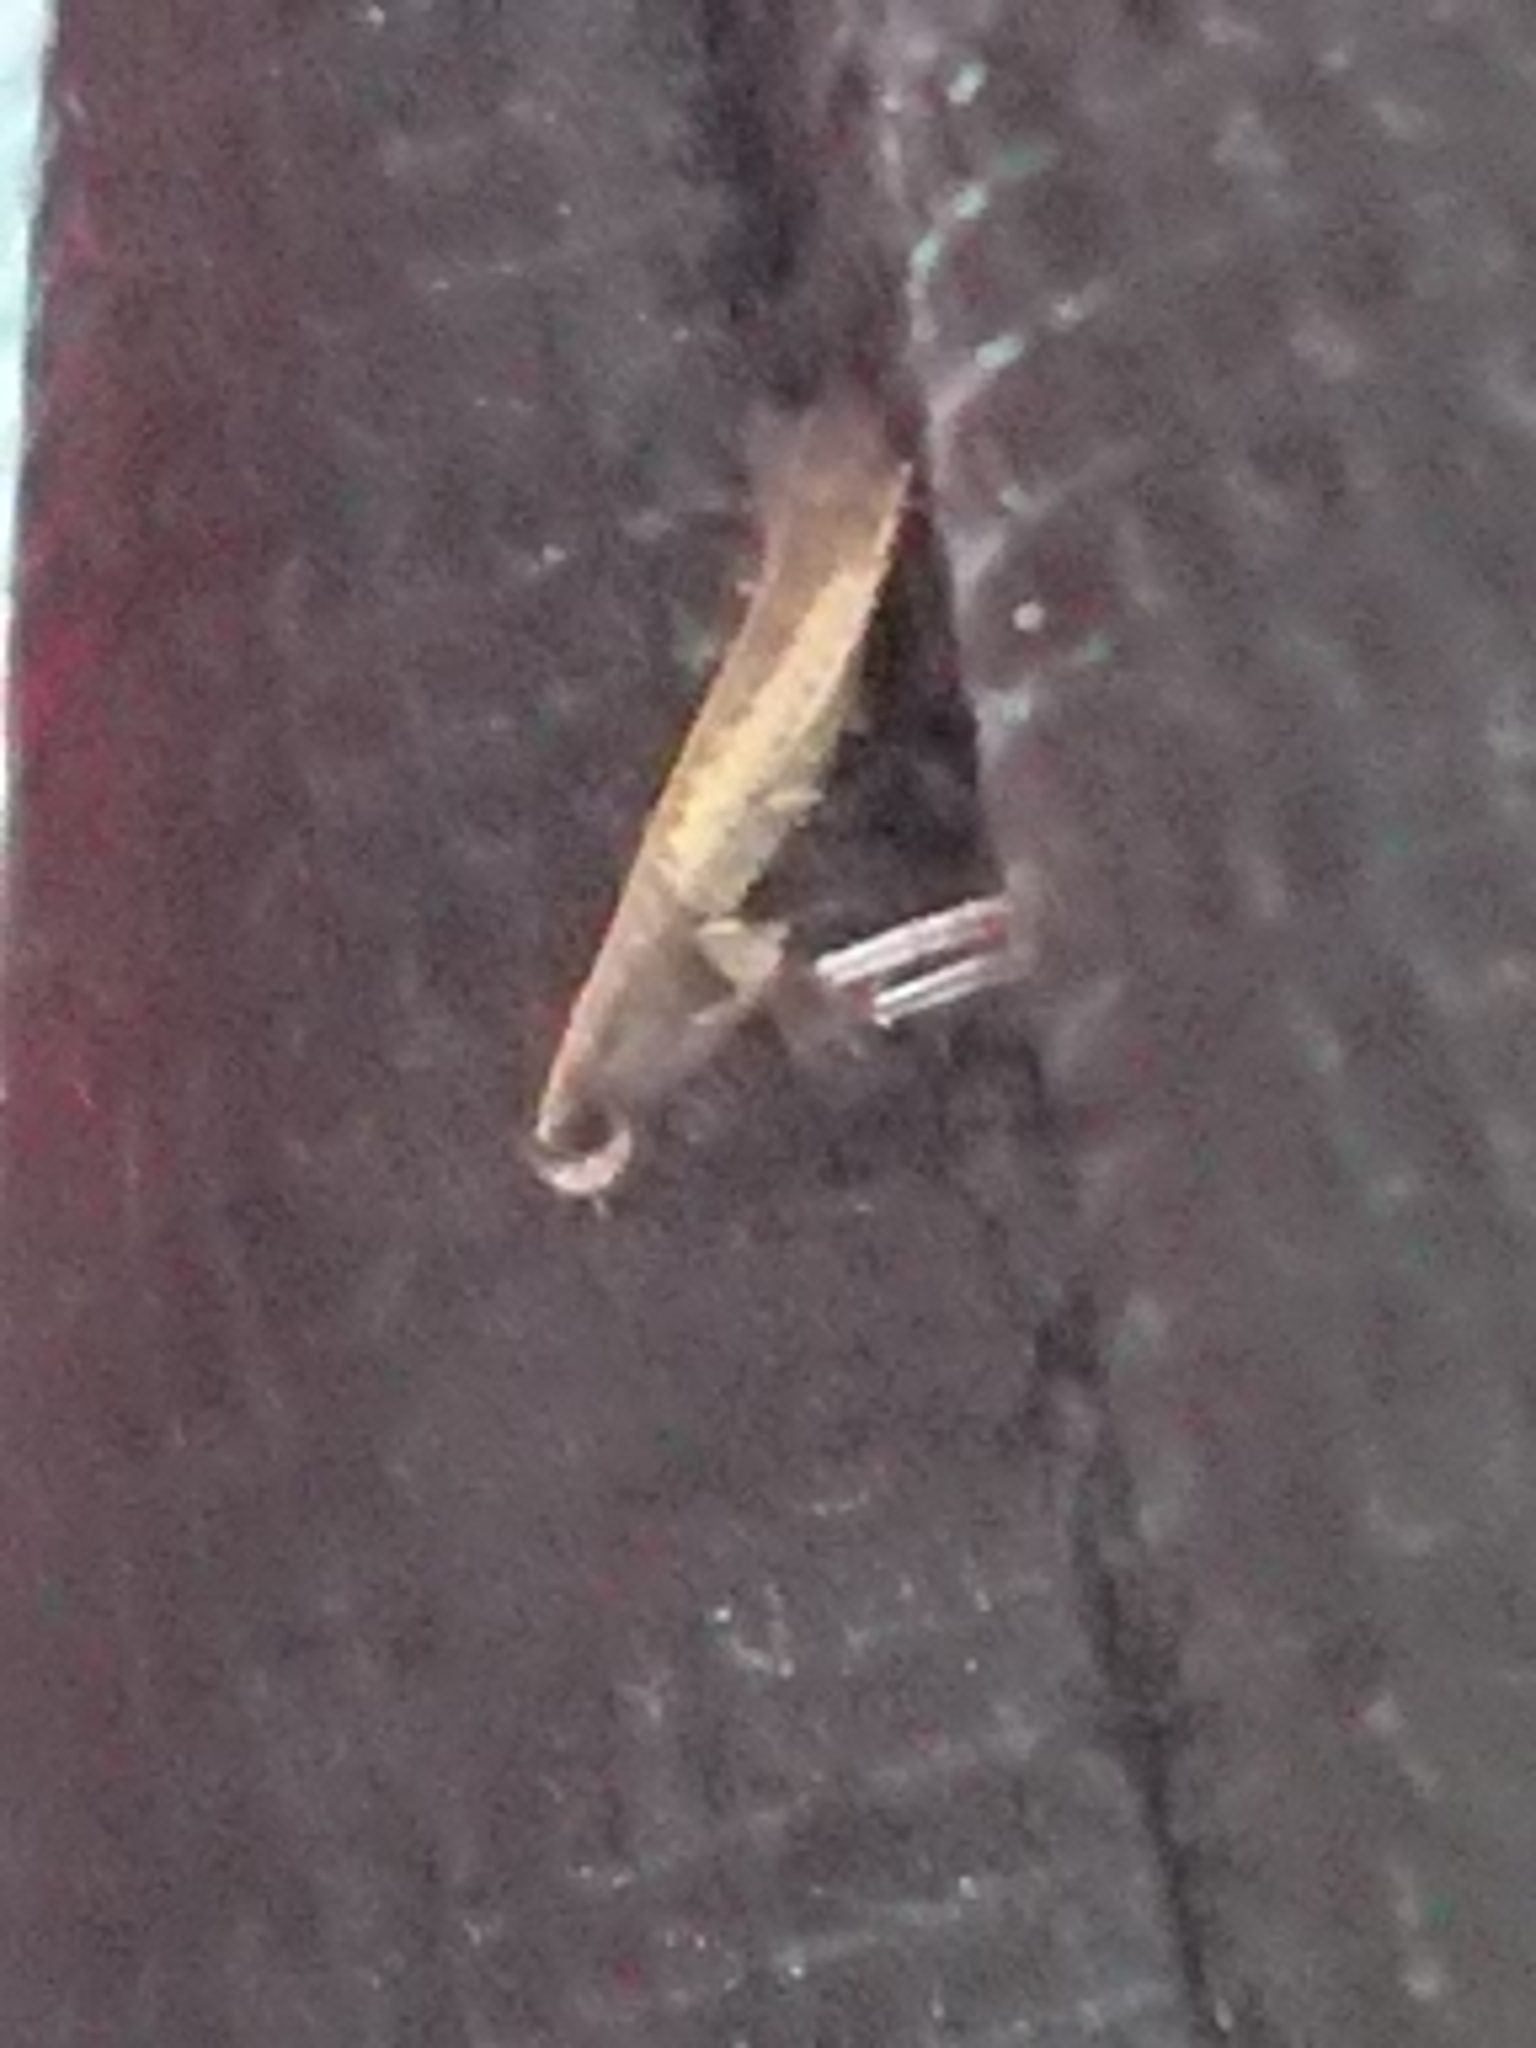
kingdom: Animalia
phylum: Arthropoda
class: Insecta
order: Lepidoptera
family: Gracillariidae
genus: Caloptilia
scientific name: Caloptilia azaleella
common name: Azalea leafminer
